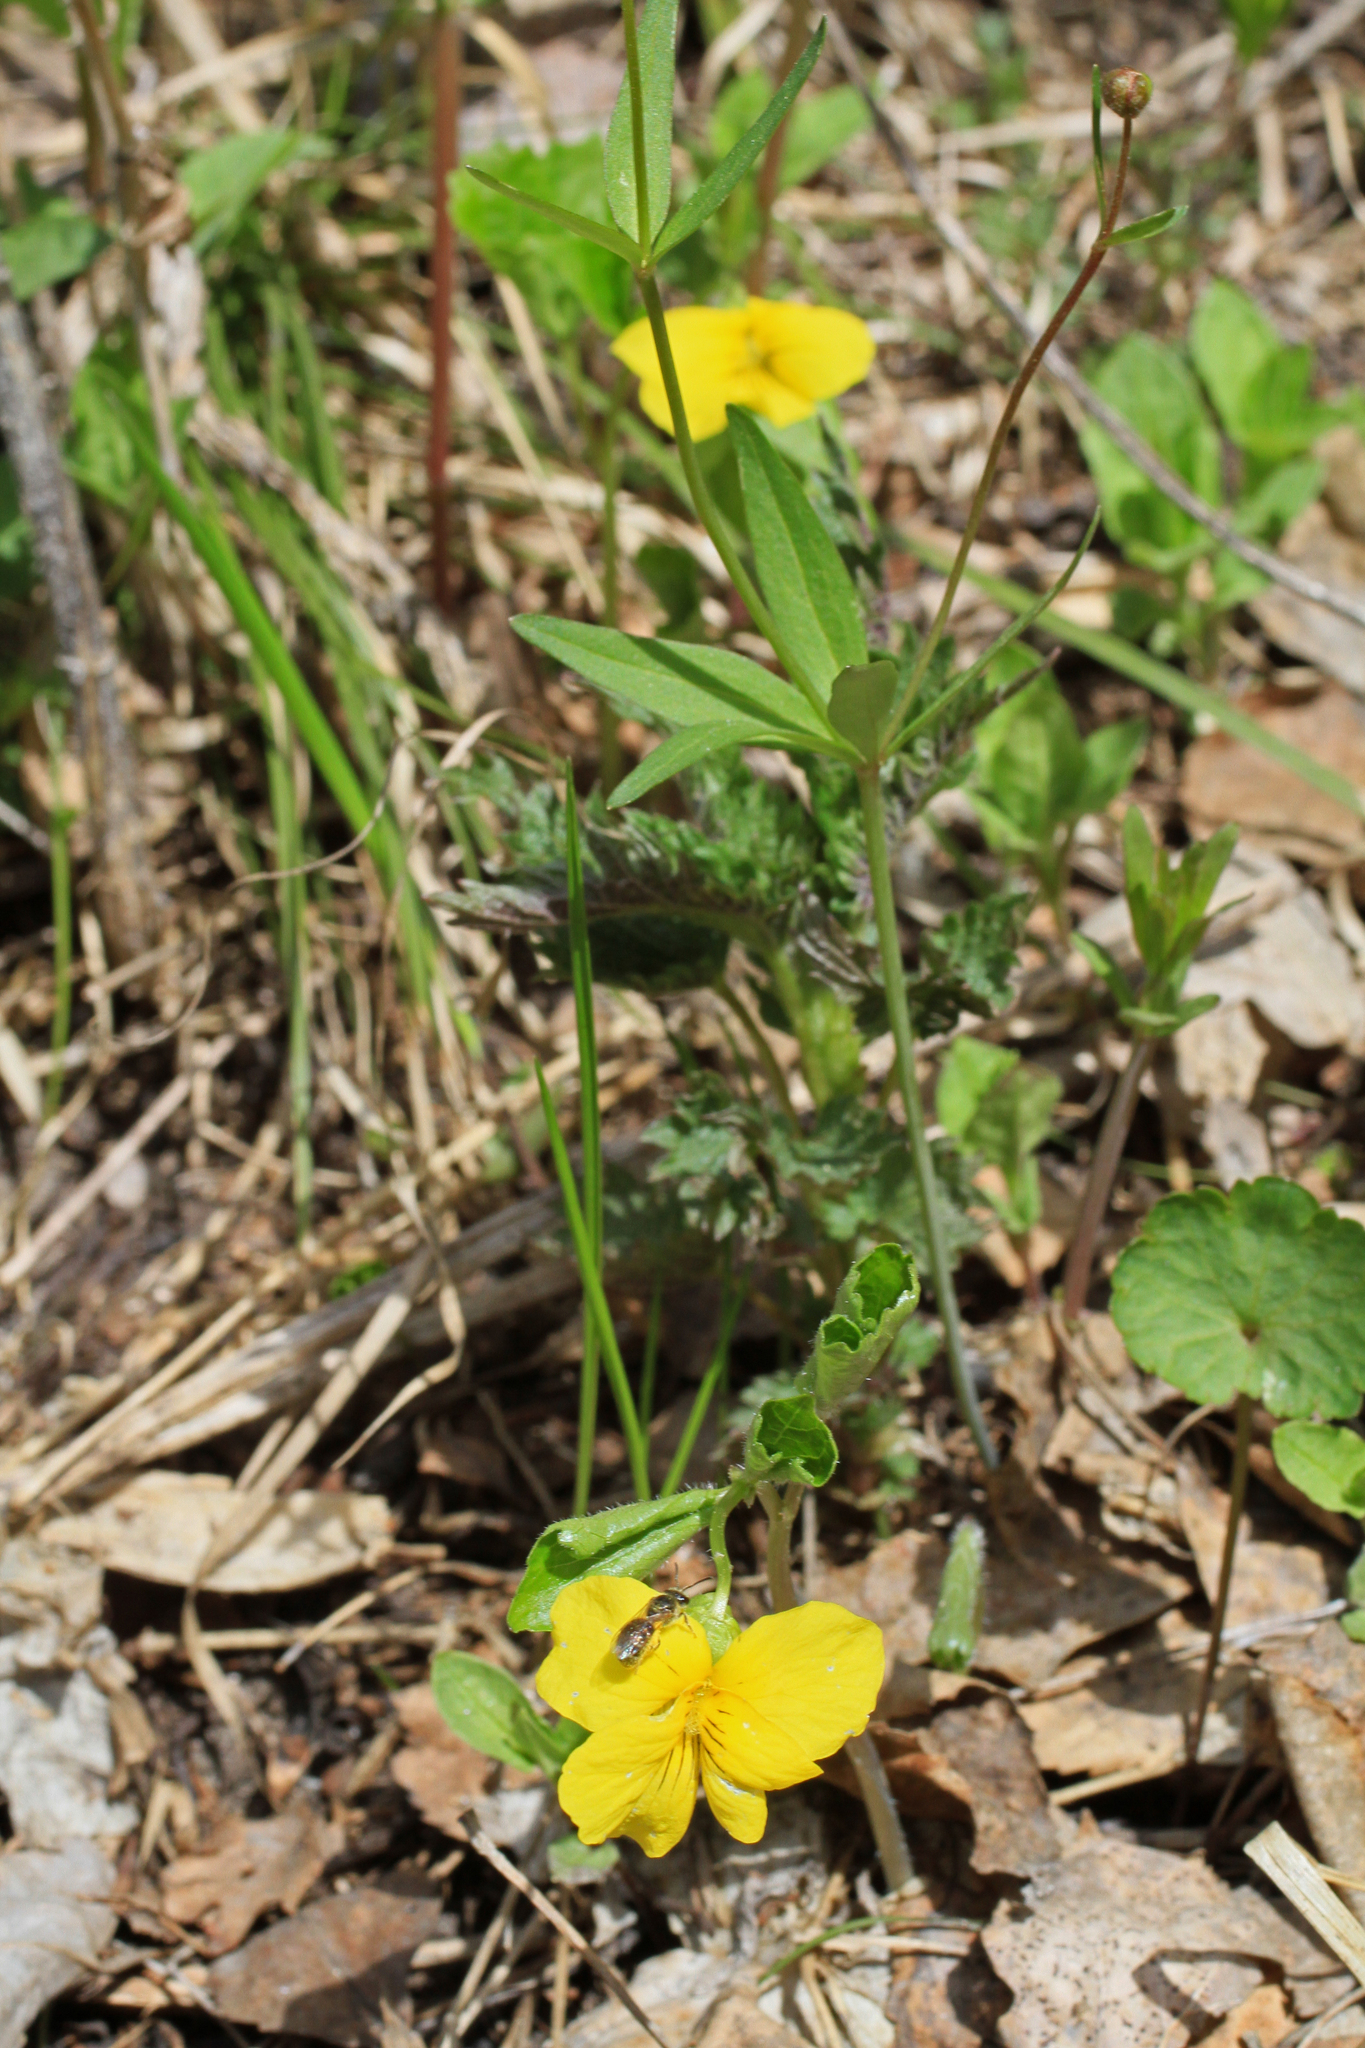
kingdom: Plantae
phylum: Tracheophyta
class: Magnoliopsida
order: Malpighiales
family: Violaceae
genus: Viola
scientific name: Viola uniflora
